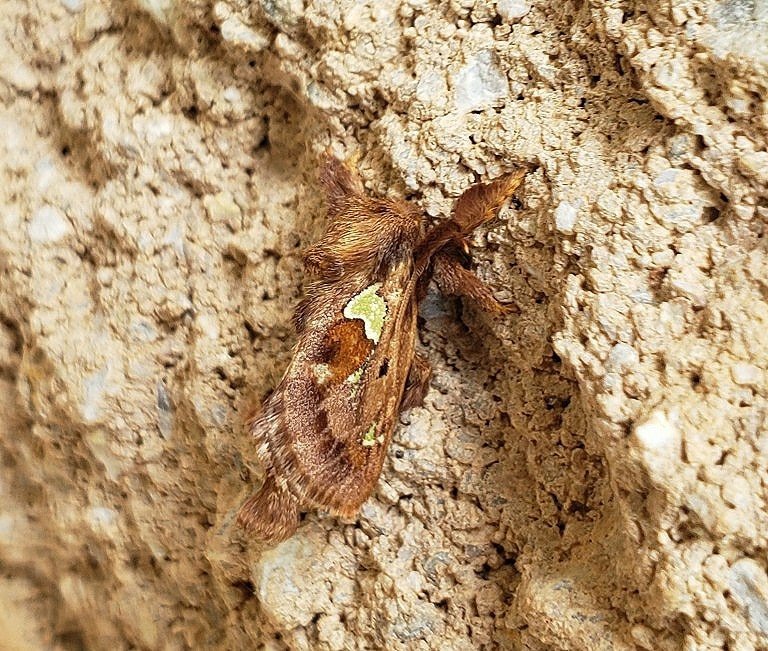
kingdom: Animalia
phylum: Arthropoda
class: Insecta
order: Lepidoptera
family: Limacodidae
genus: Euclea
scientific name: Euclea delphinii
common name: Spiny oak-slug moth
